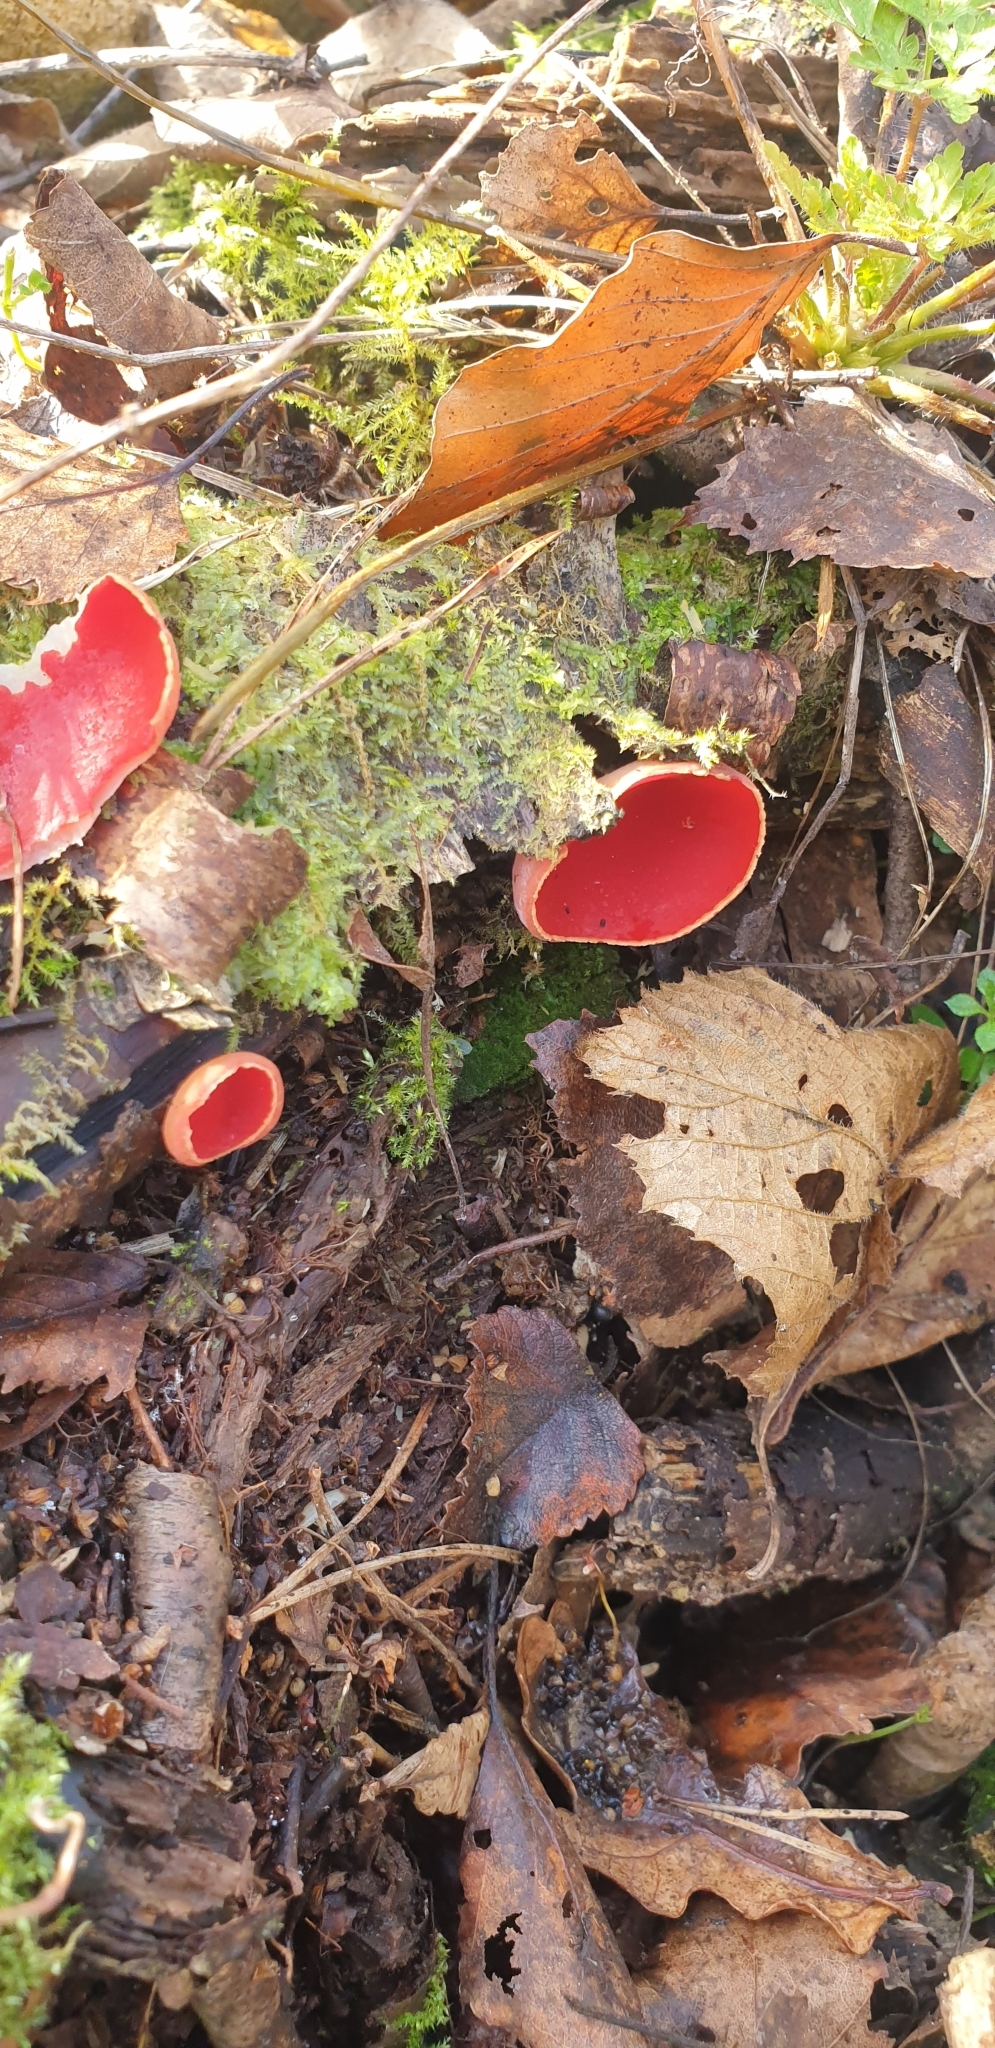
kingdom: Fungi
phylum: Ascomycota
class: Pezizomycetes
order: Pezizales
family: Sarcoscyphaceae
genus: Sarcoscypha
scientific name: Sarcoscypha
